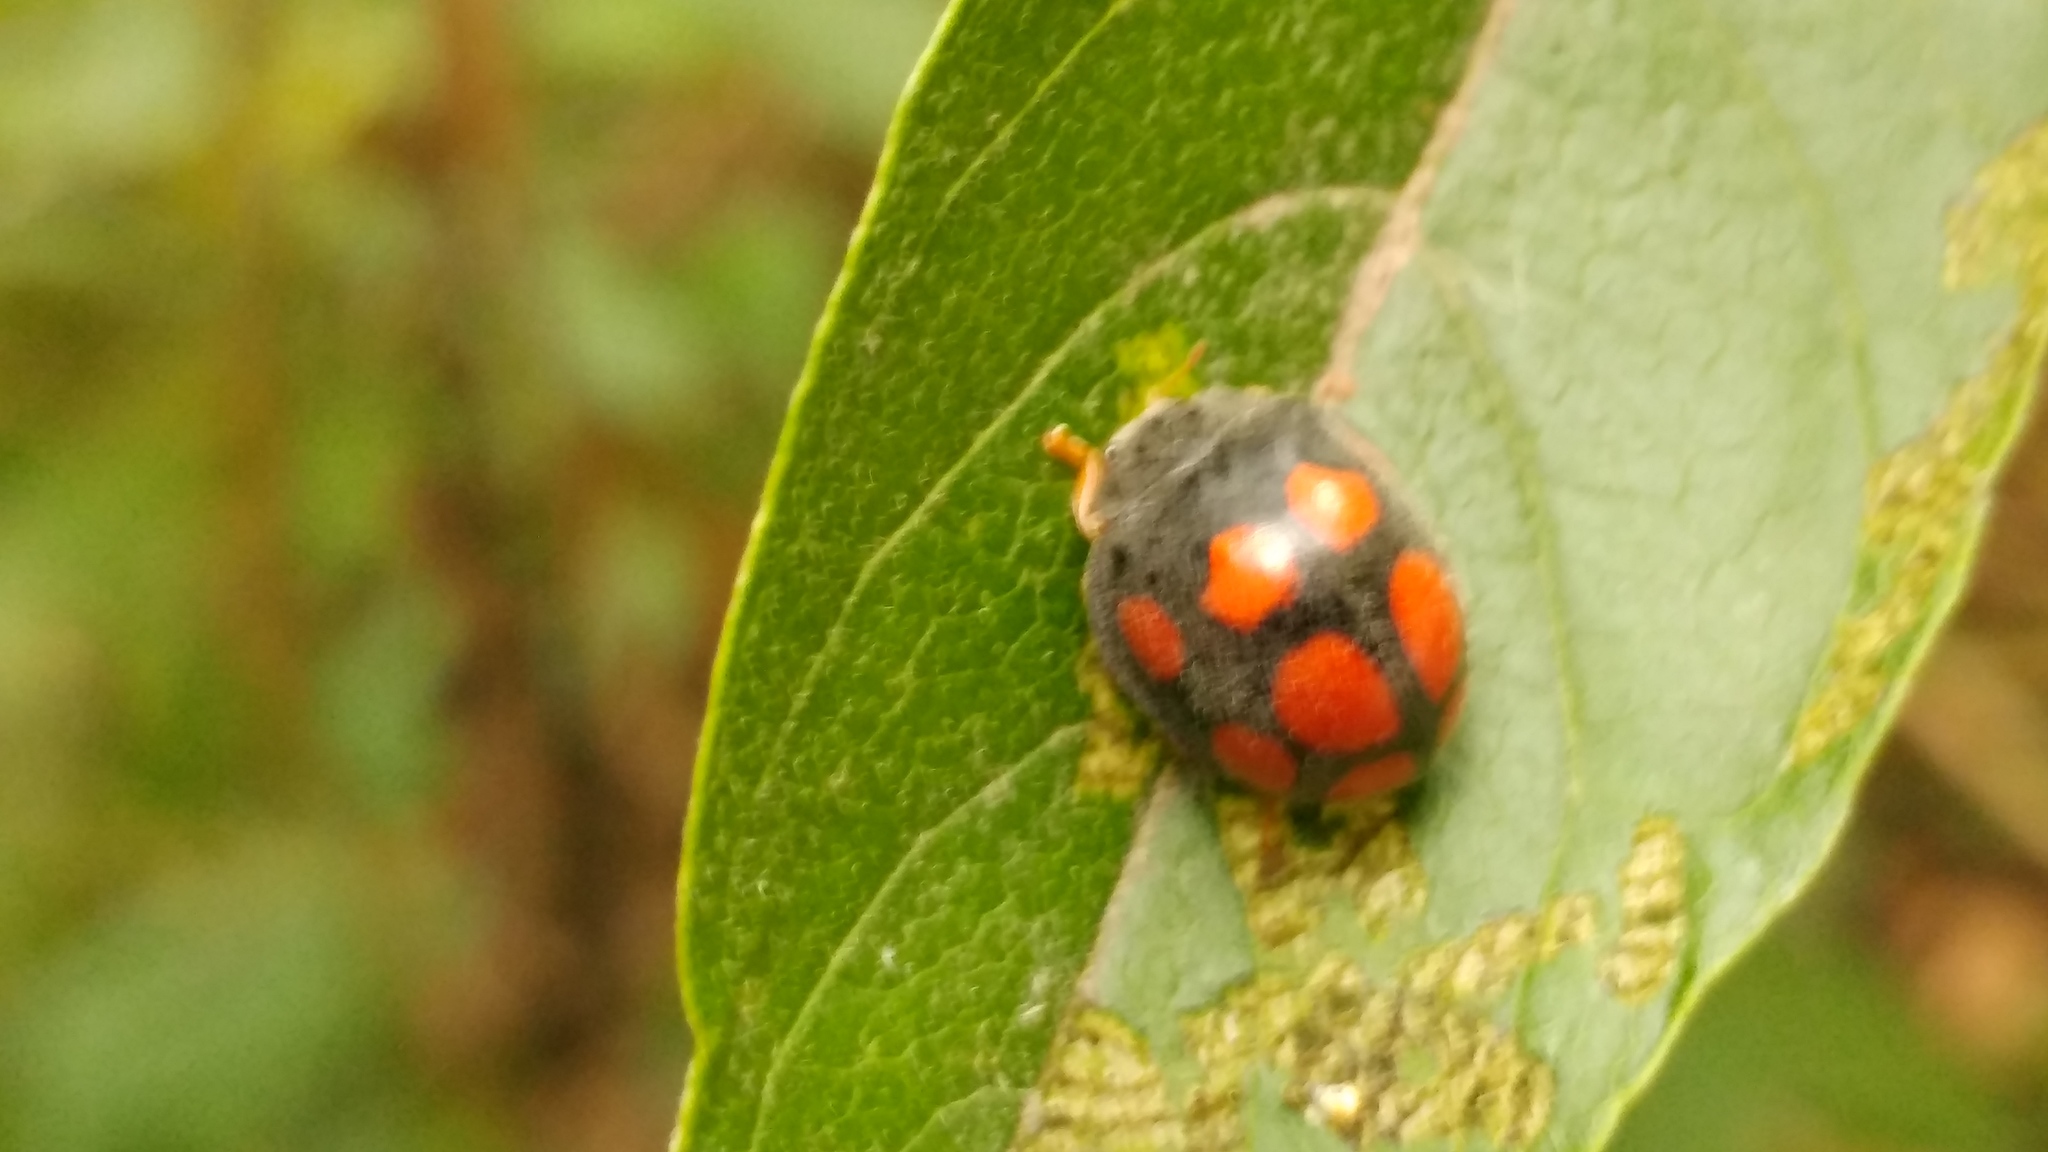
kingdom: Animalia
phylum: Arthropoda
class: Insecta
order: Coleoptera
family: Coccinellidae
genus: Epilachna
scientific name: Epilachna
